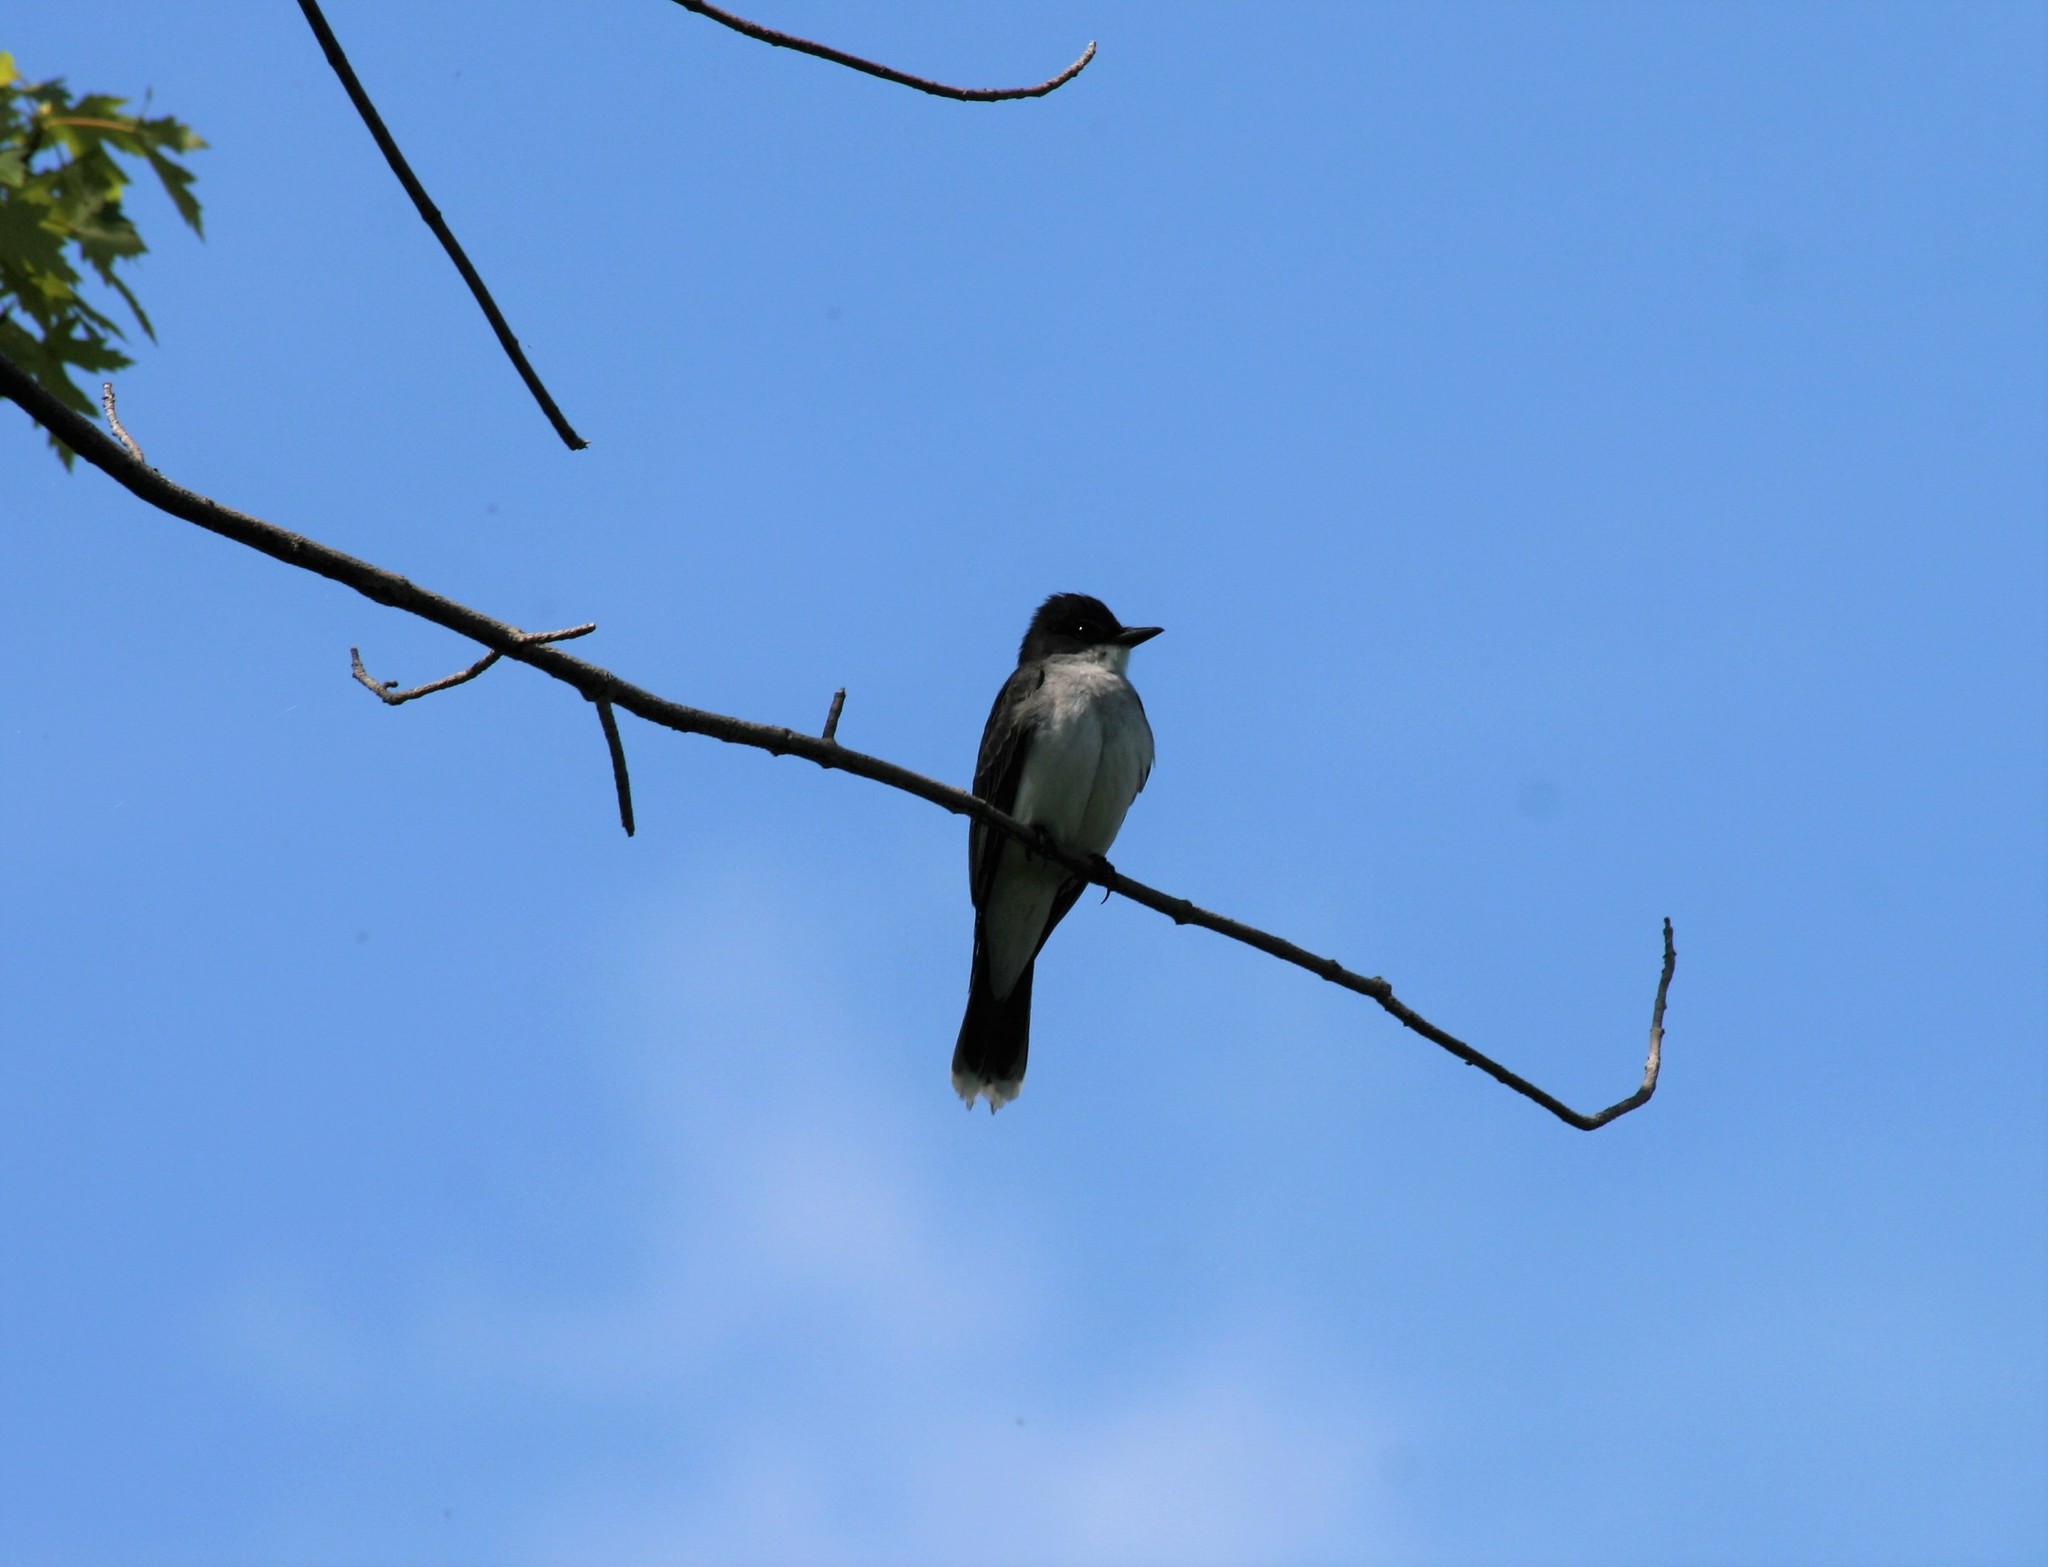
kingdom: Animalia
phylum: Chordata
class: Aves
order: Passeriformes
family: Tyrannidae
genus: Tyrannus
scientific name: Tyrannus tyrannus
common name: Eastern kingbird
